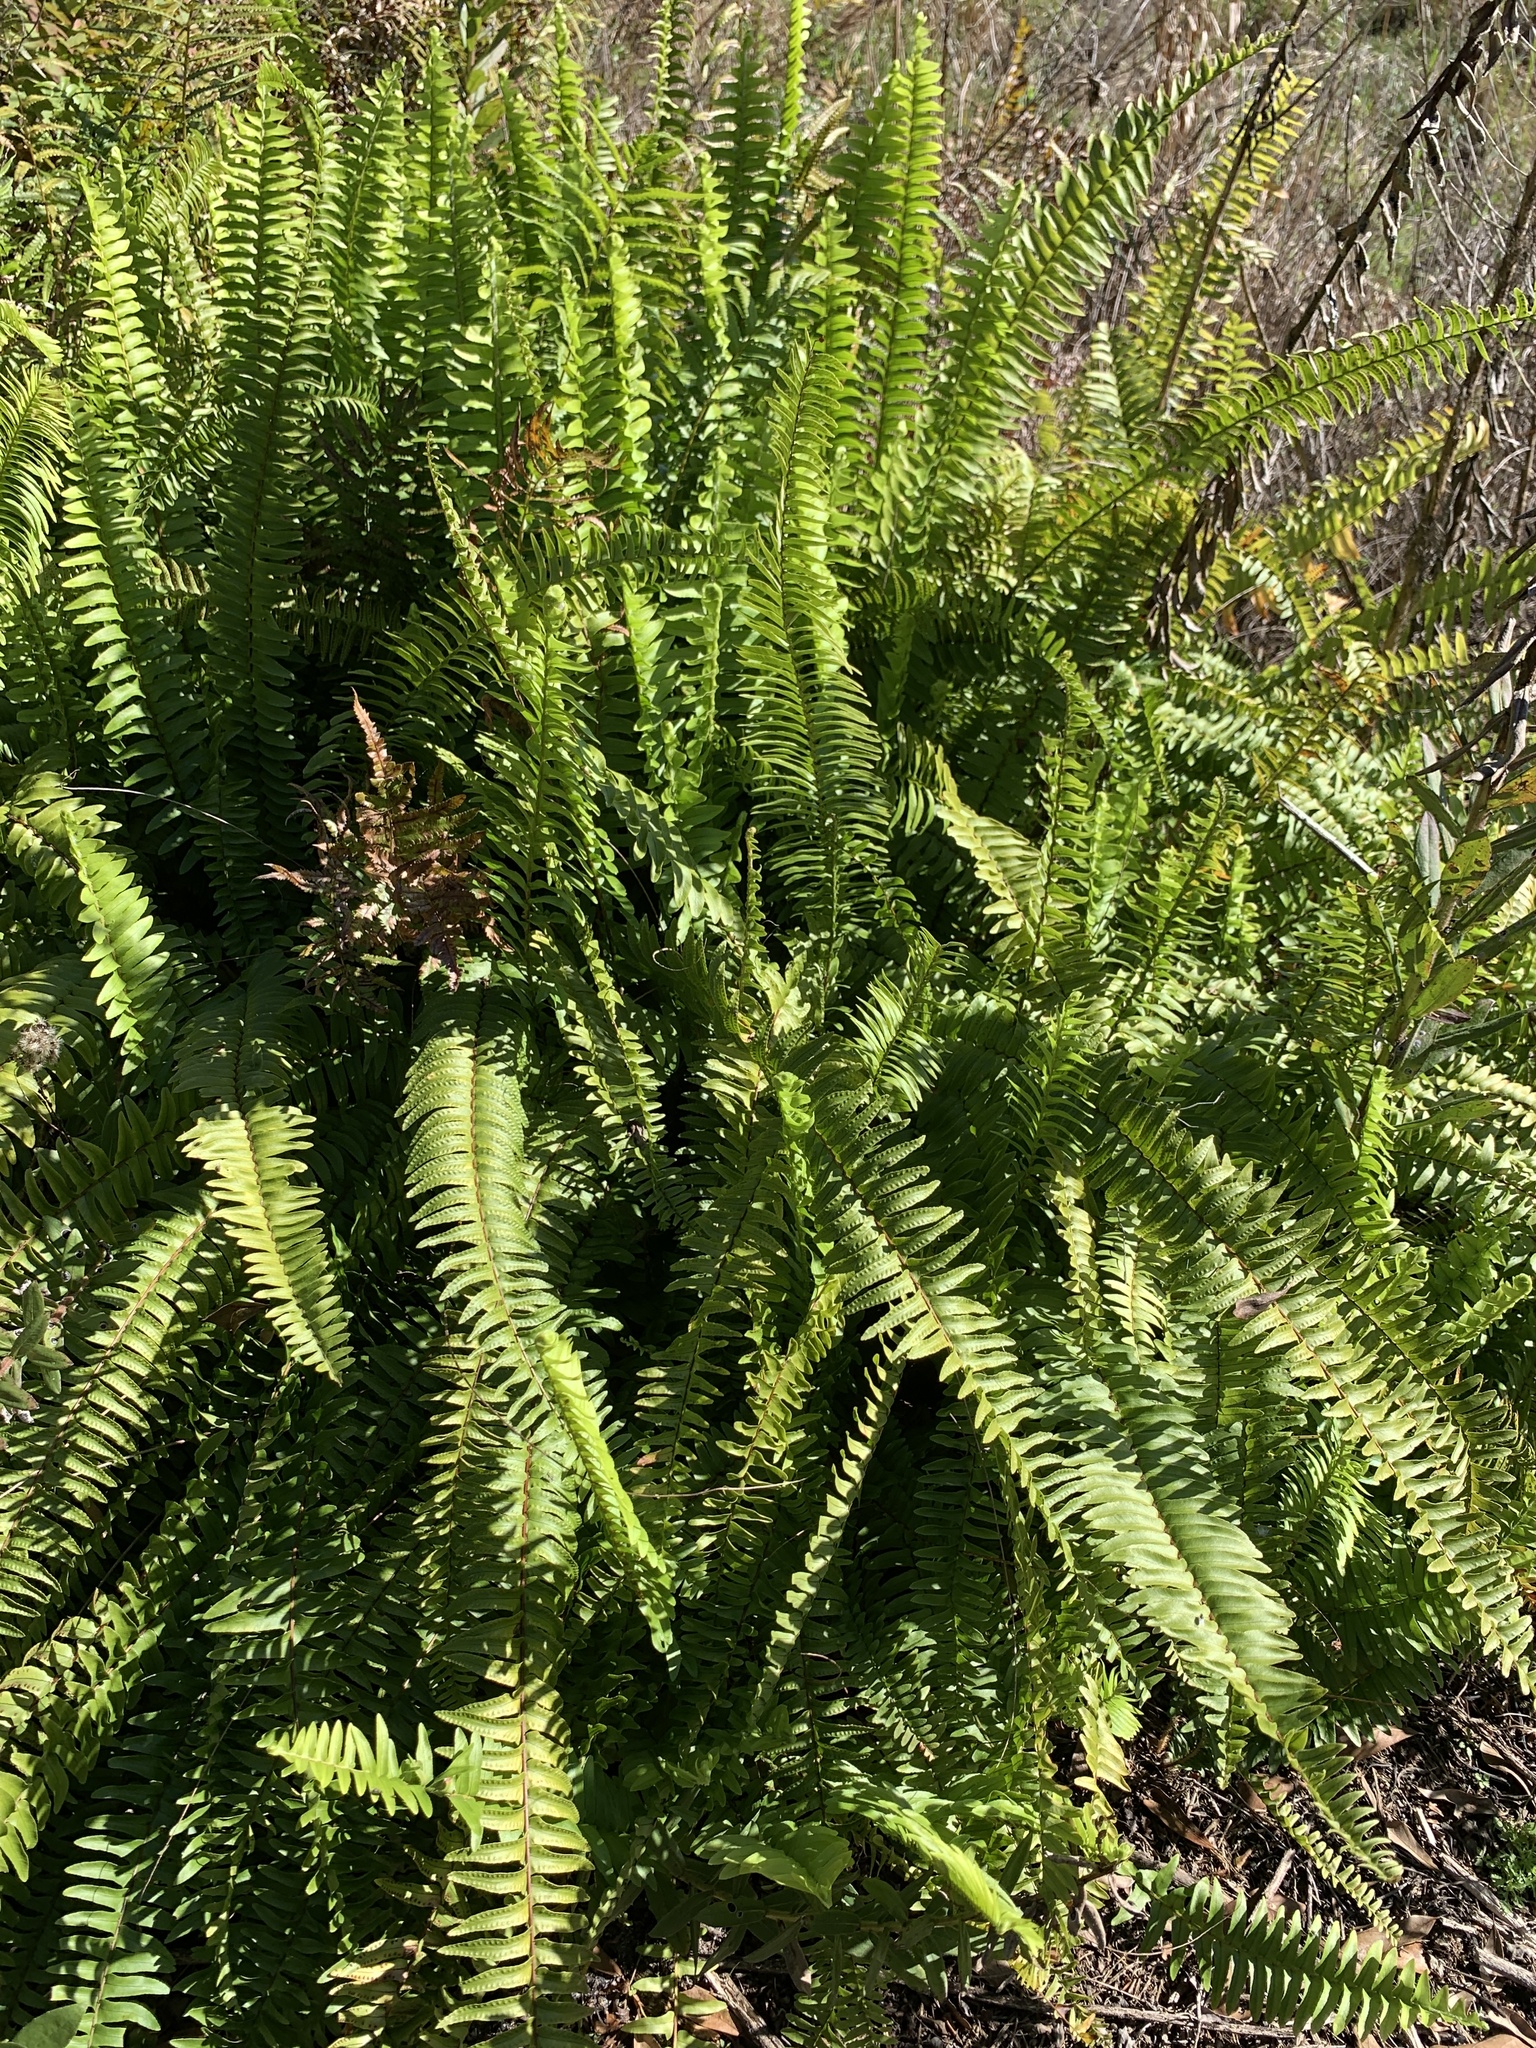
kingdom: Plantae
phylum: Tracheophyta
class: Polypodiopsida
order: Polypodiales
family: Nephrolepidaceae
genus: Nephrolepis
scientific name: Nephrolepis cordifolia
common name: Narrow swordfern
